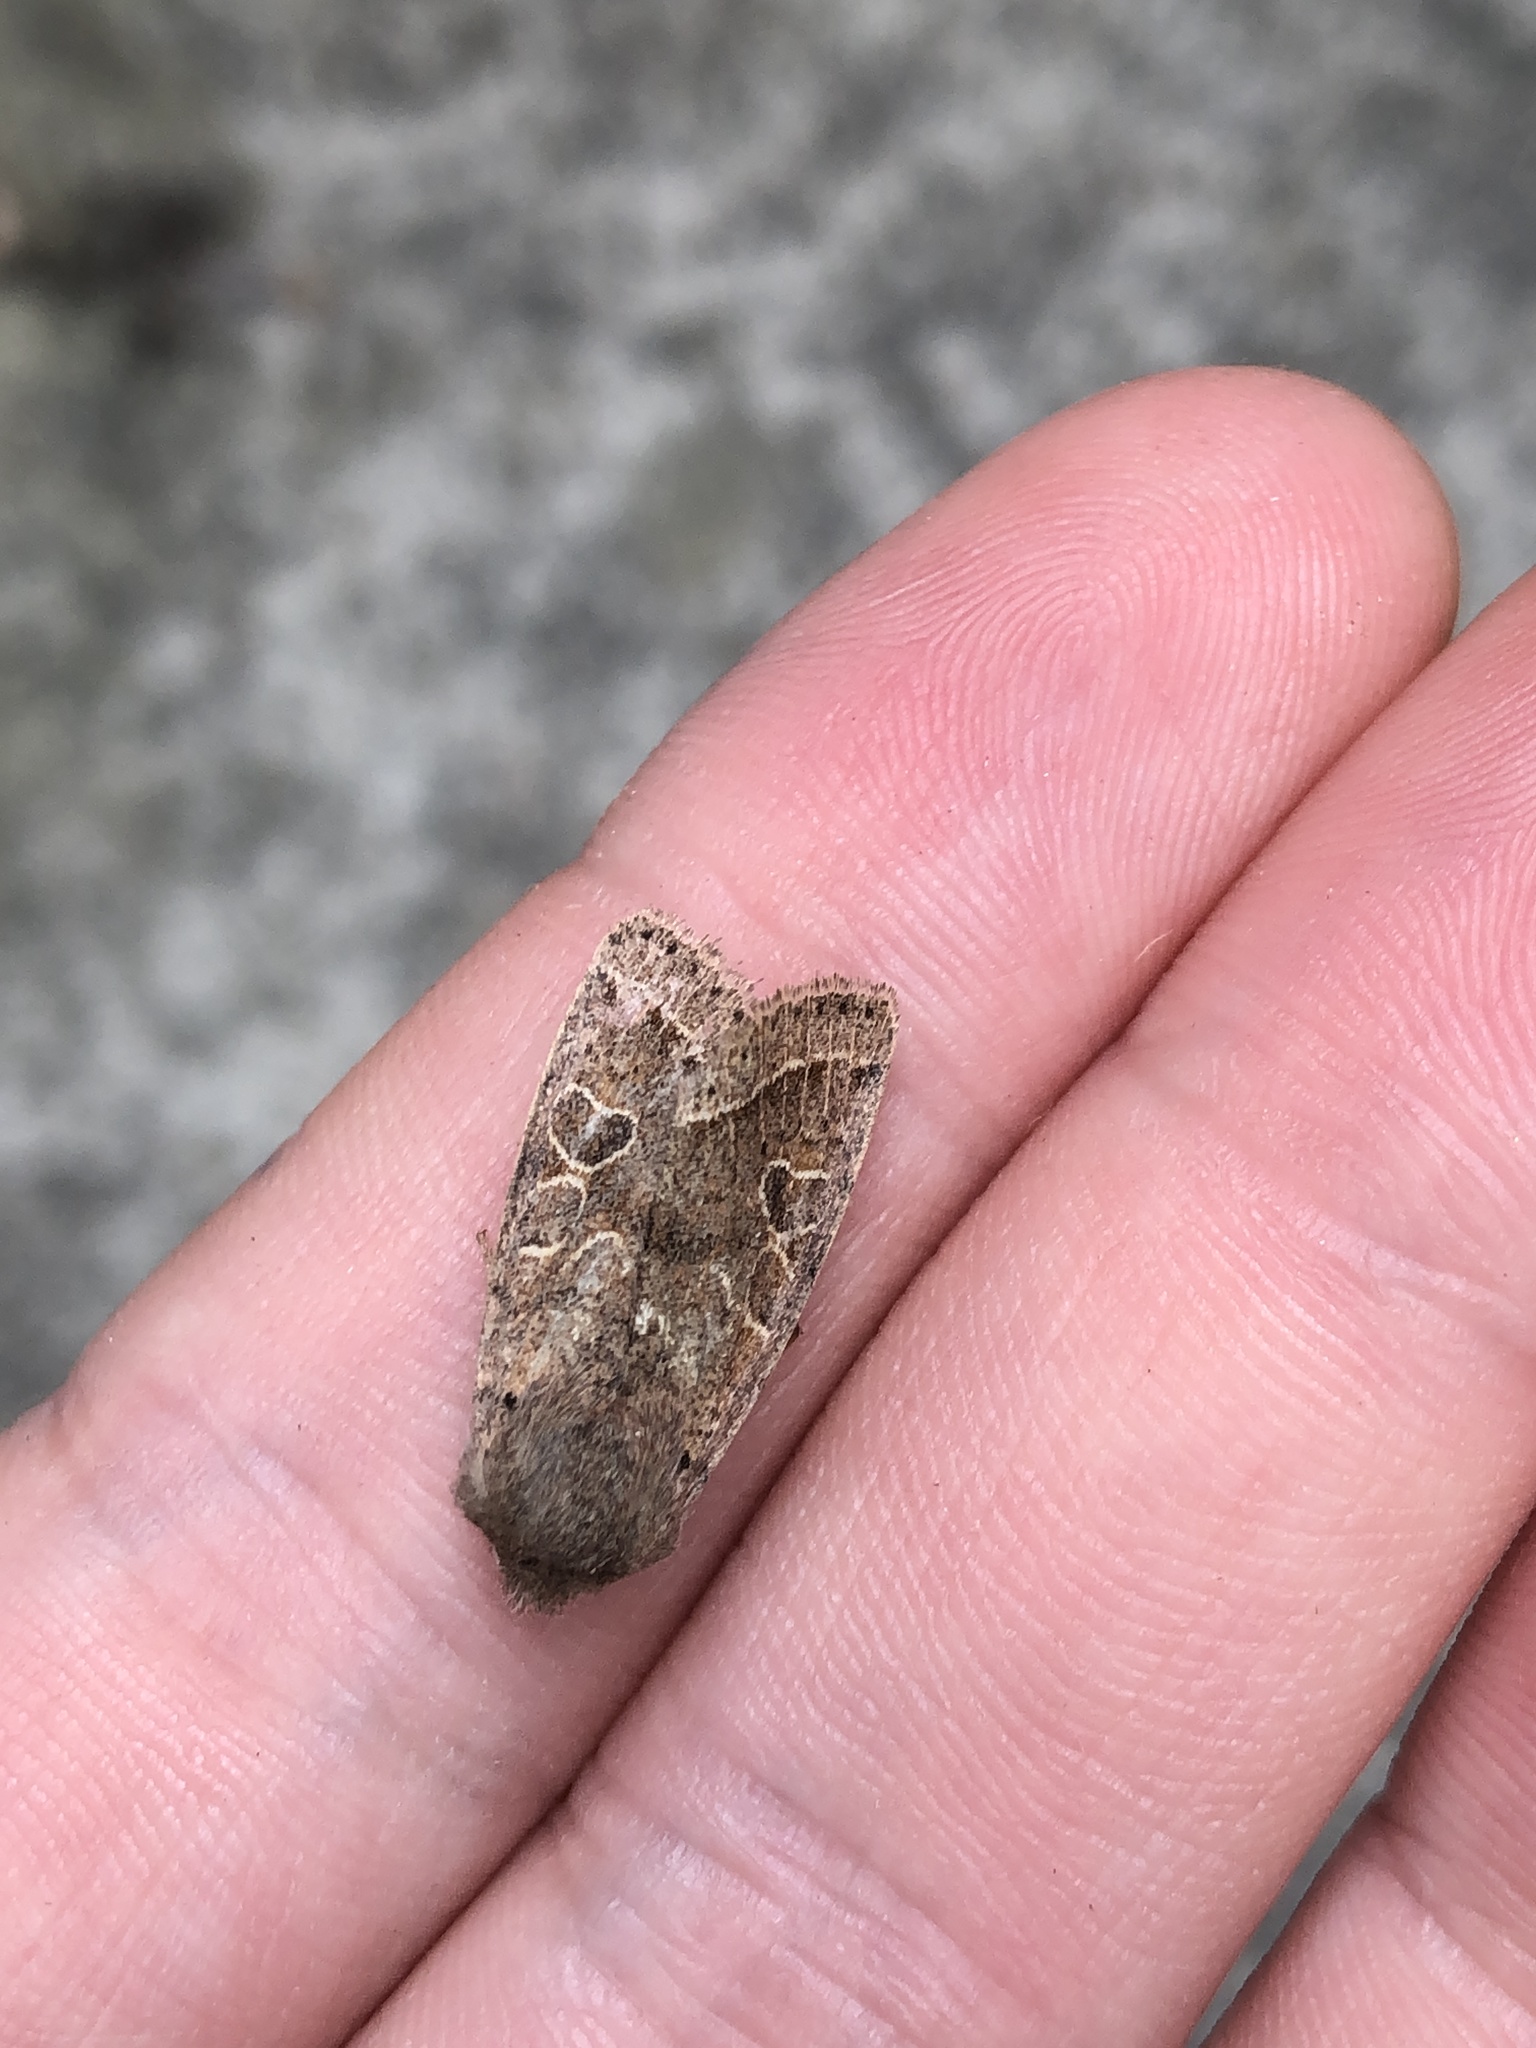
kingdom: Animalia
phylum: Arthropoda
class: Insecta
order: Lepidoptera
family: Noctuidae
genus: Orthosia
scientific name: Orthosia cerasi
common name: Common quaker
